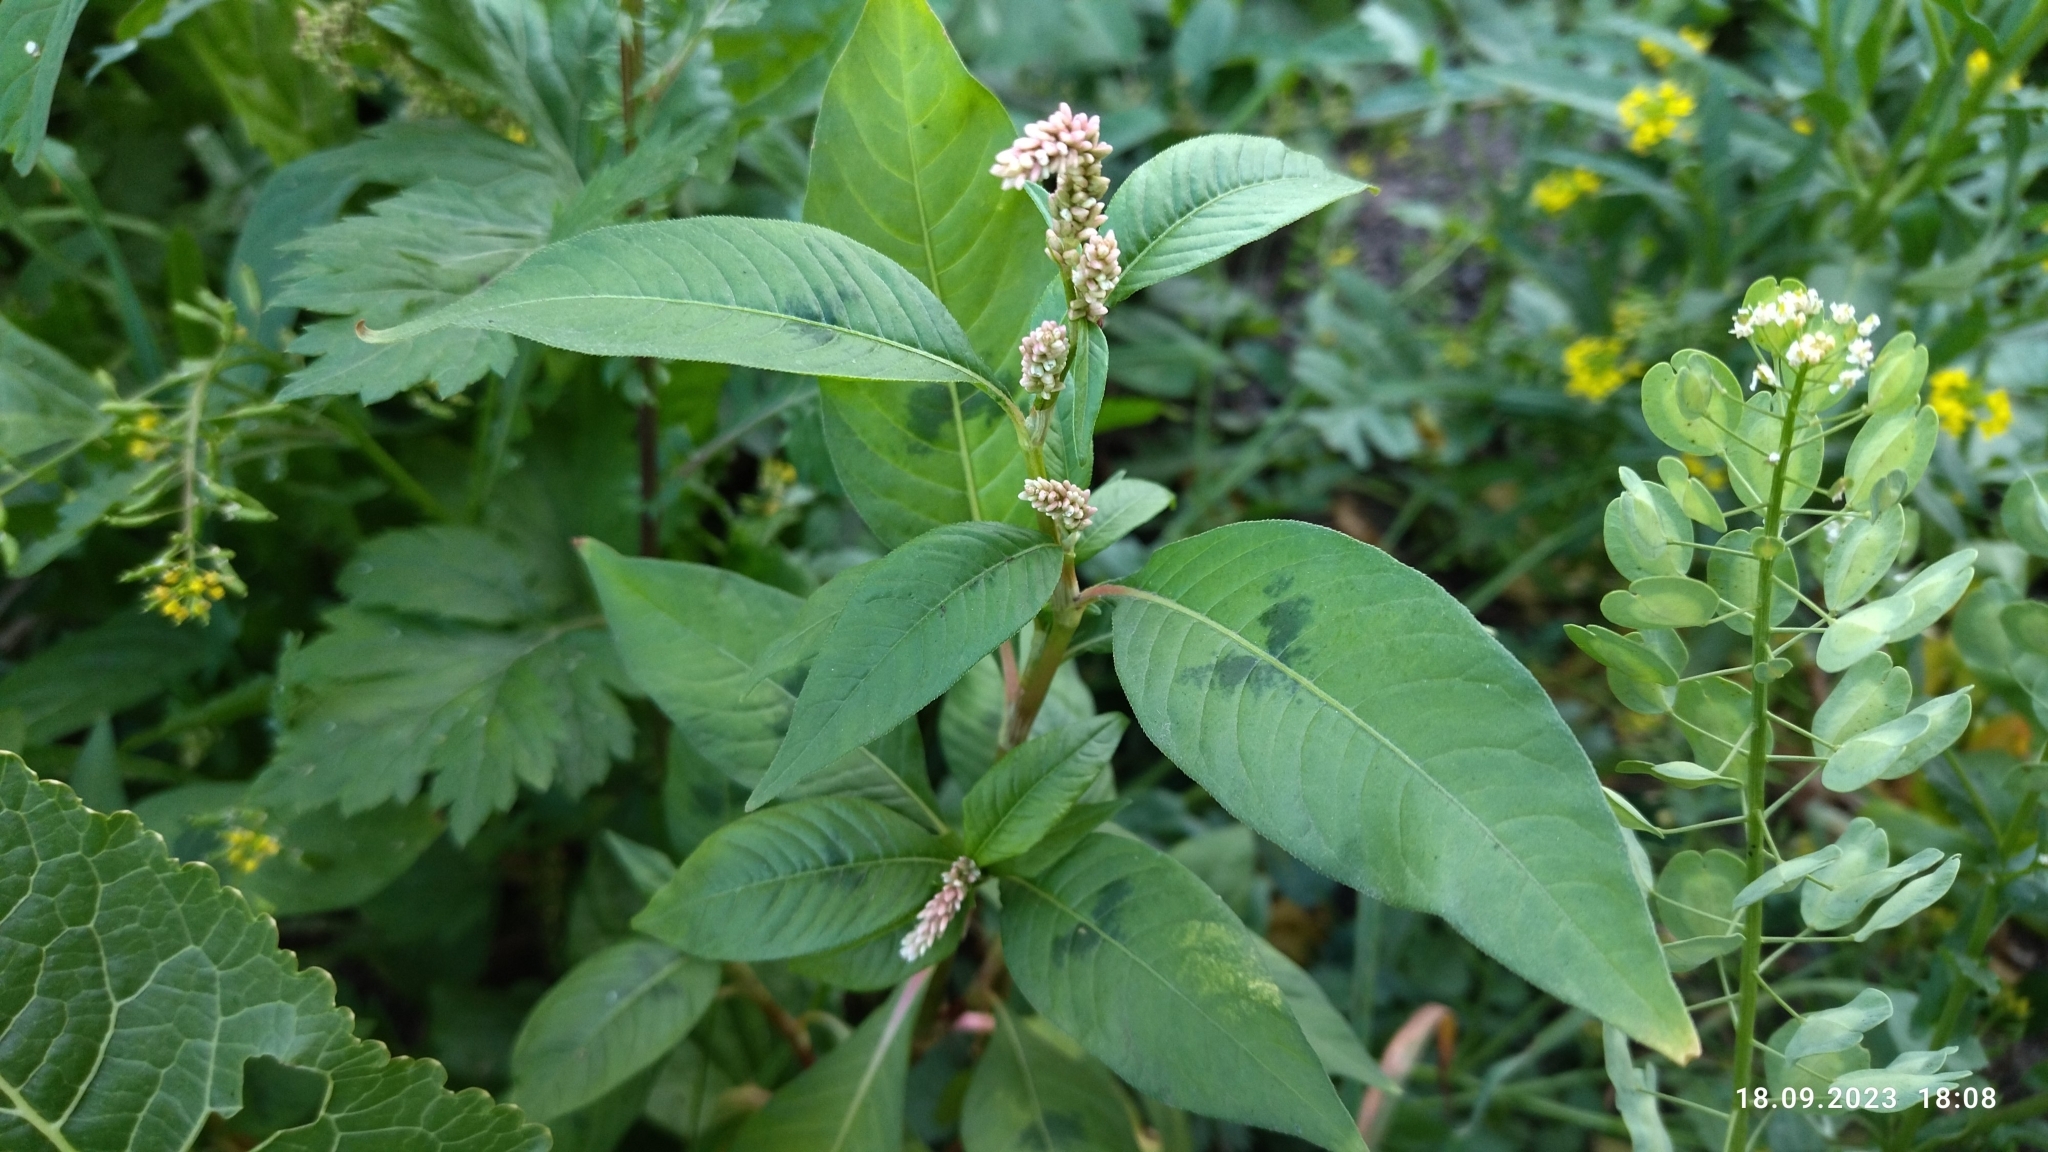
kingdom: Plantae
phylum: Tracheophyta
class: Magnoliopsida
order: Caryophyllales
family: Polygonaceae
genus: Persicaria
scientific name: Persicaria lapathifolia
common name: Curlytop knotweed
